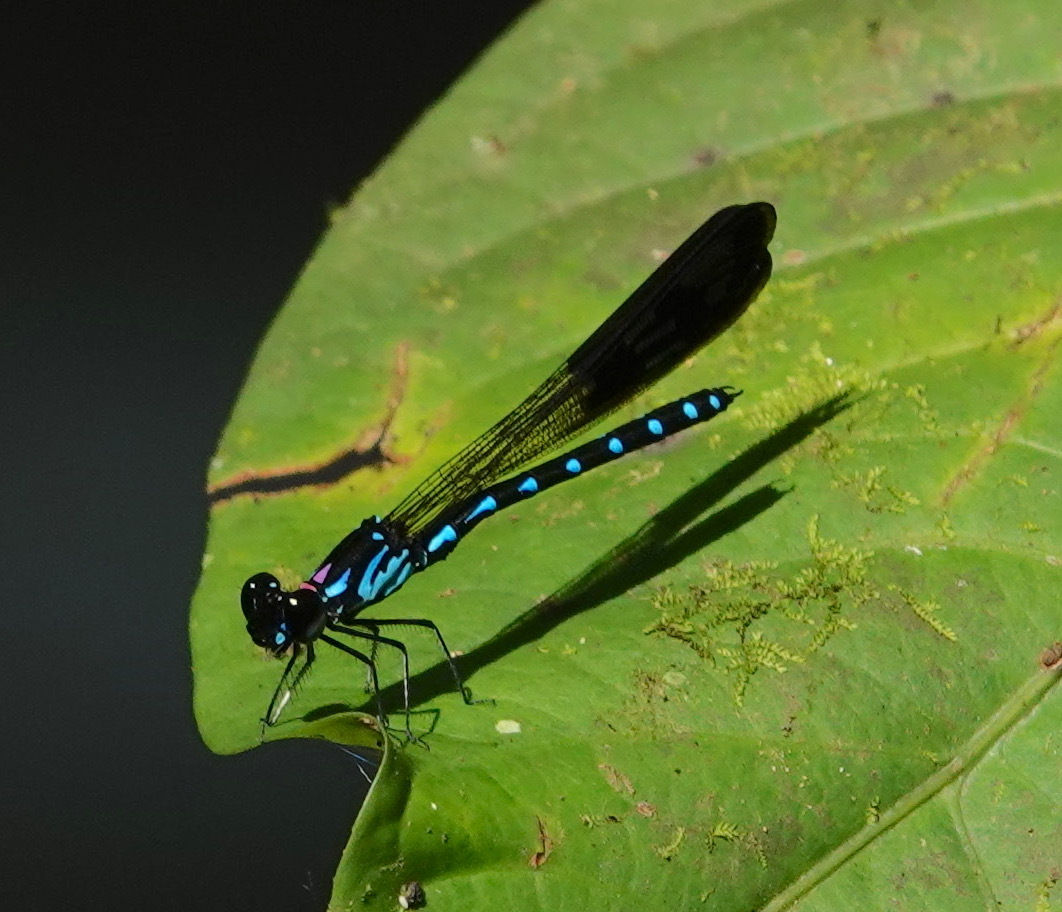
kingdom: Animalia
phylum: Arthropoda
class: Insecta
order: Odonata
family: Chlorocyphidae
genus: Heliocypha
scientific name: Heliocypha perforata
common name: Common blue jewel
